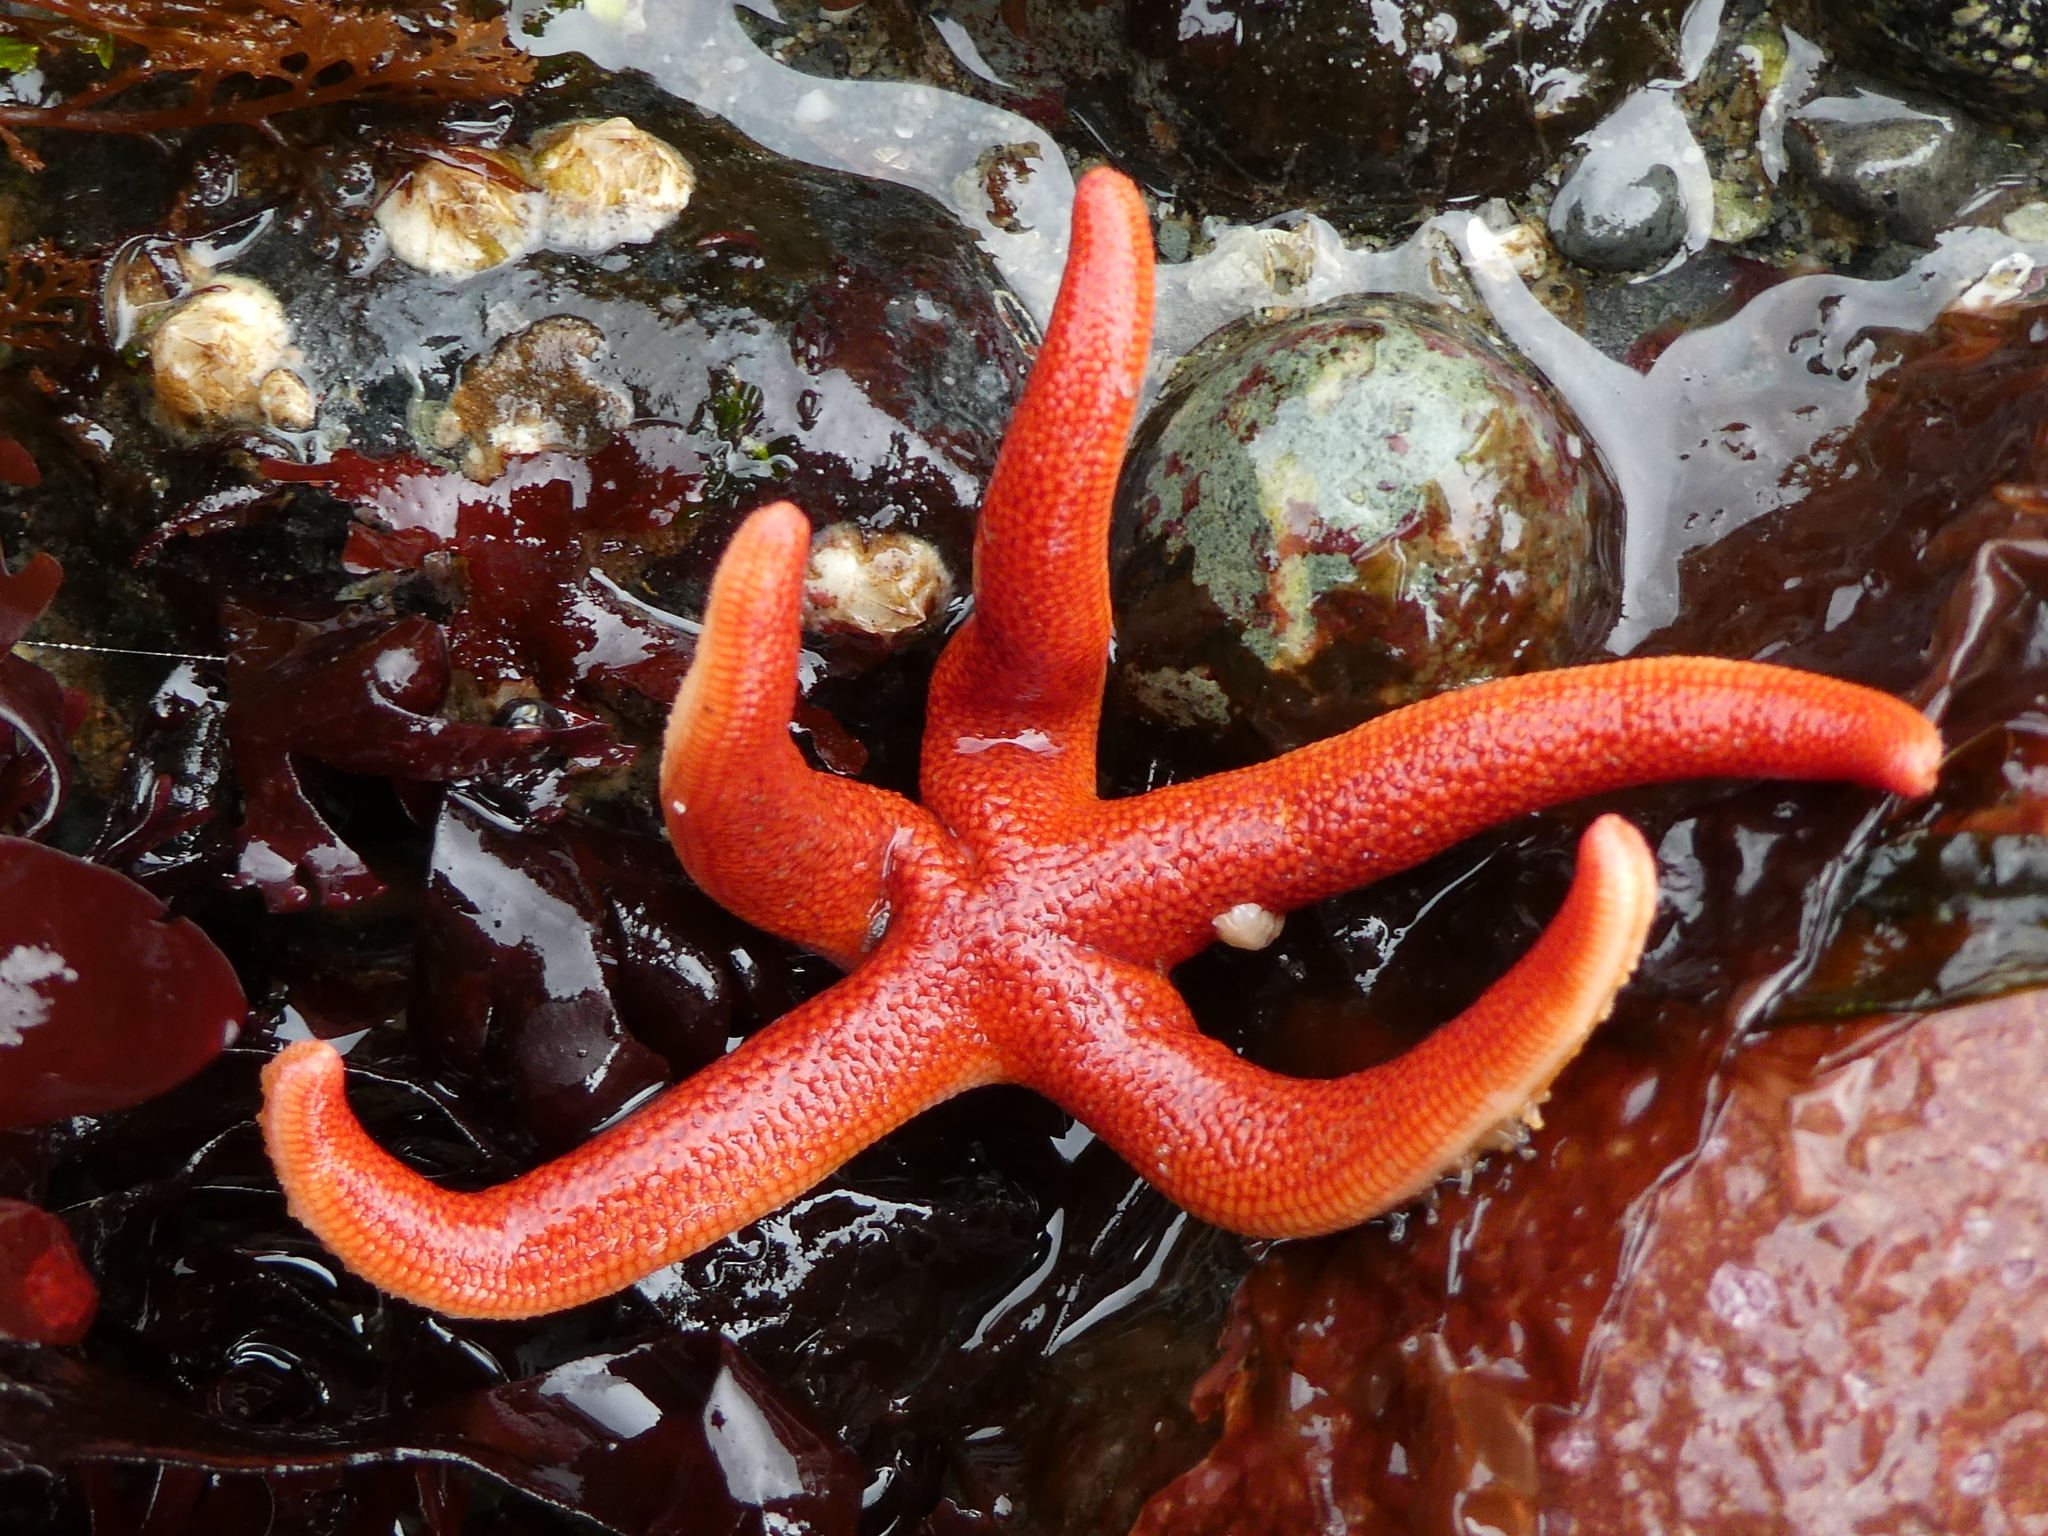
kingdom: Animalia
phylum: Echinodermata
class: Asteroidea
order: Spinulosida
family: Echinasteridae
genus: Henricia
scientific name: Henricia leviuscula
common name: Pacific blood star
